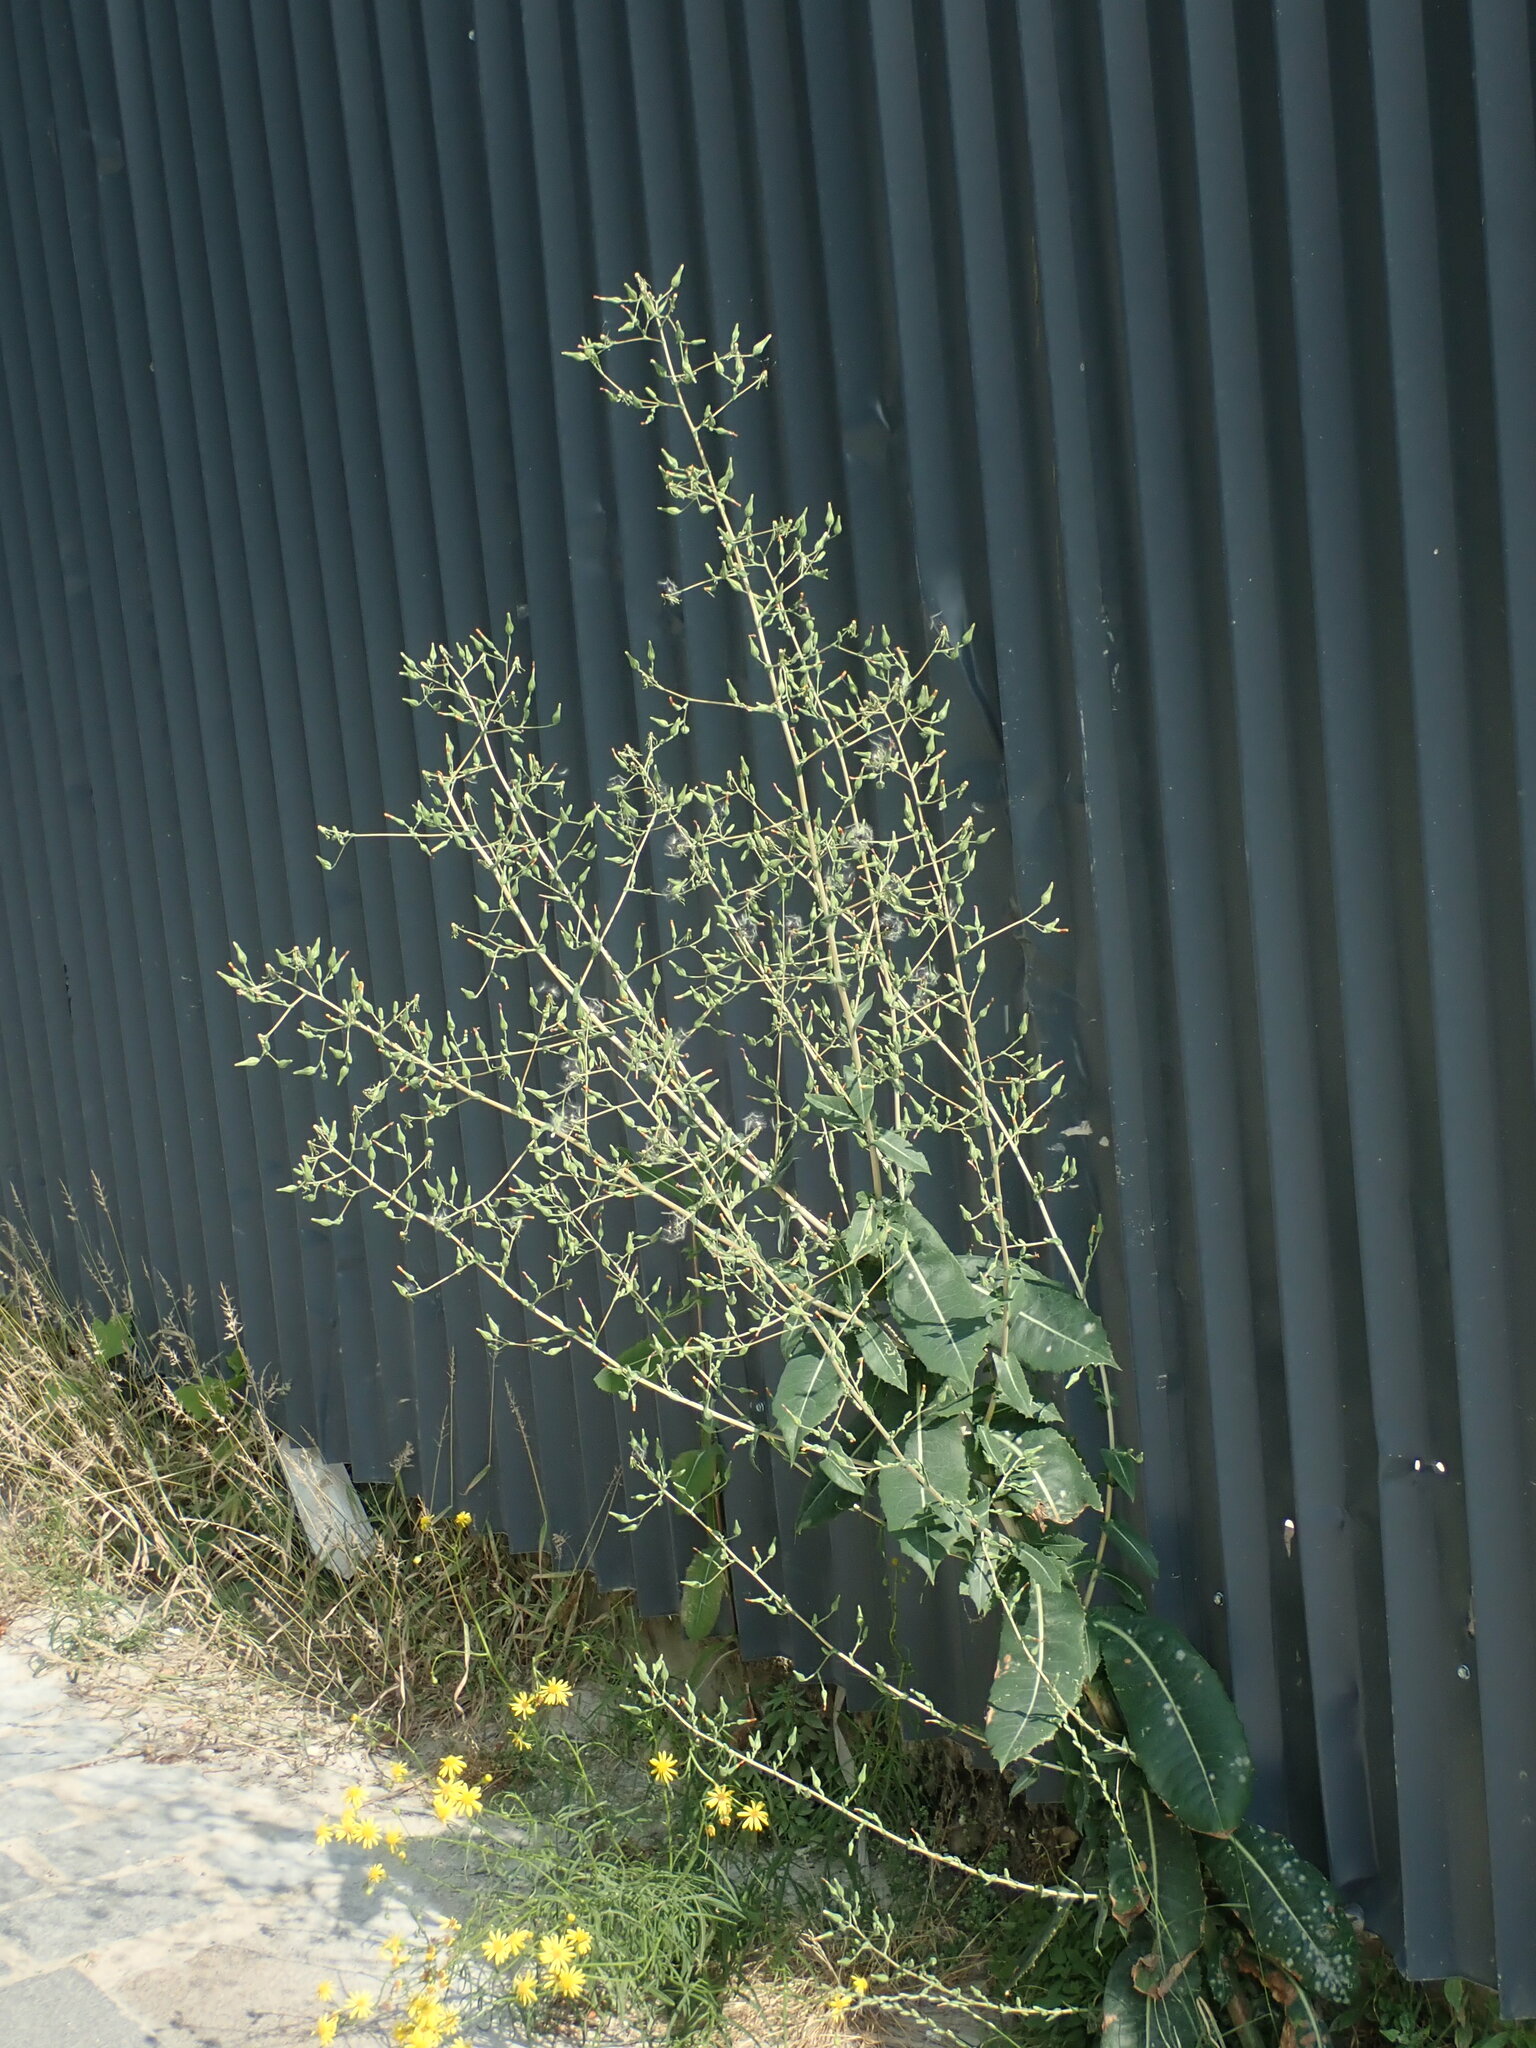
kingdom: Plantae
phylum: Tracheophyta
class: Magnoliopsida
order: Asterales
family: Asteraceae
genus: Lactuca
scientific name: Lactuca virosa
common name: Great lettuce
